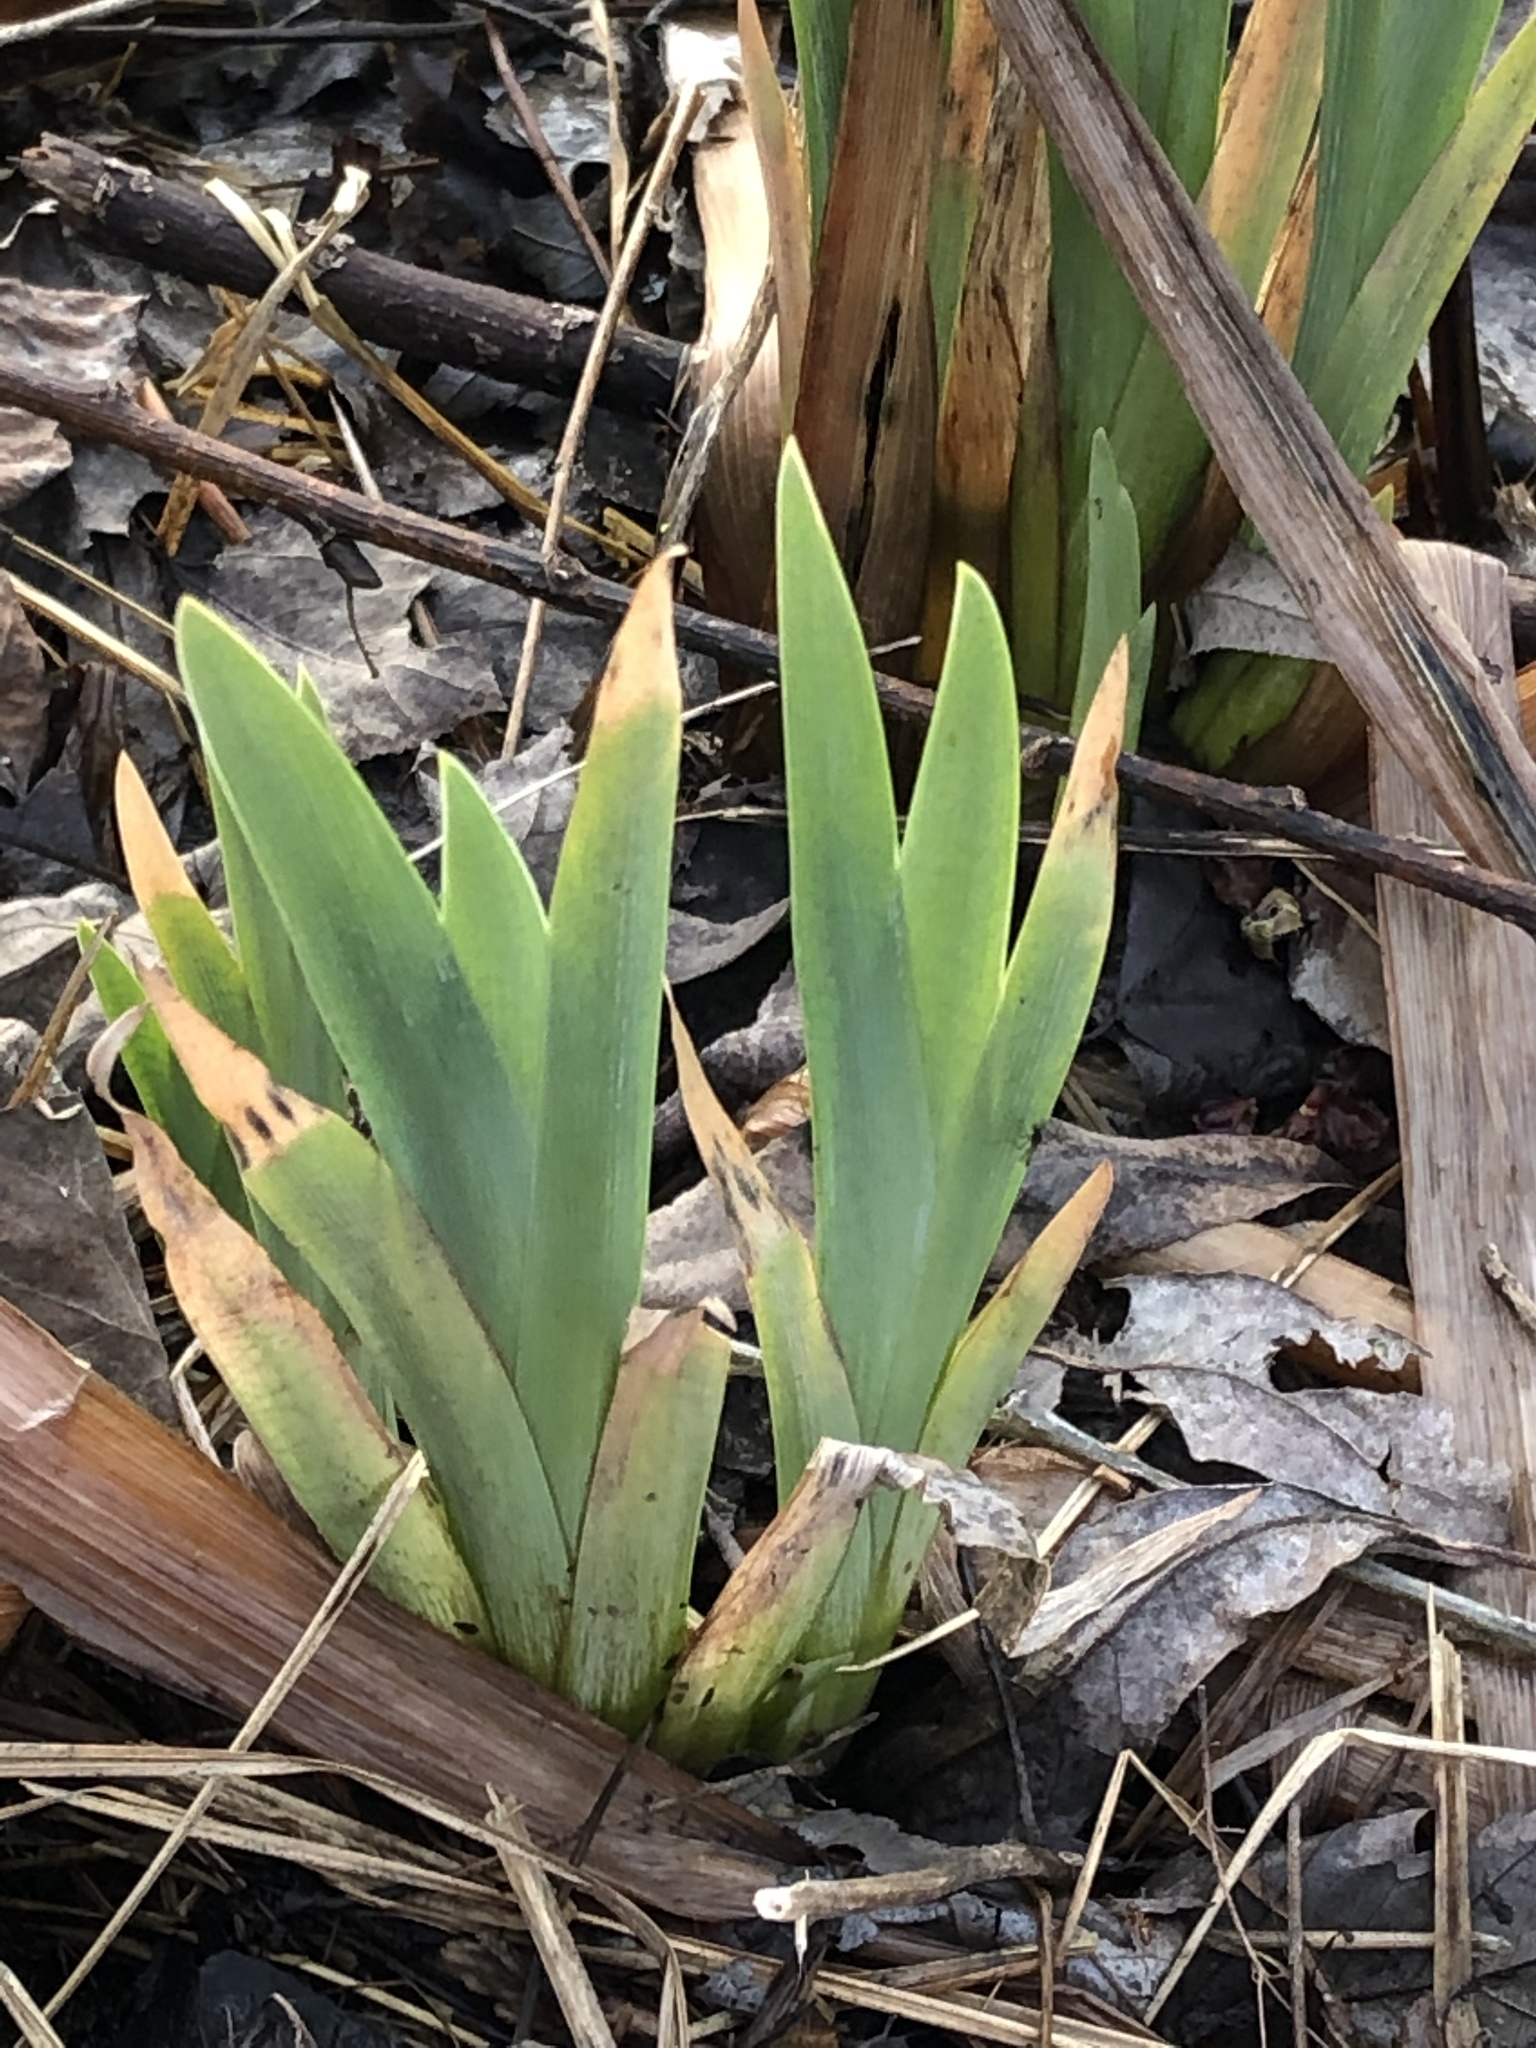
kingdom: Plantae
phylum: Tracheophyta
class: Liliopsida
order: Asparagales
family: Iridaceae
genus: Iris
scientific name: Iris versicolor
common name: Purple iris
